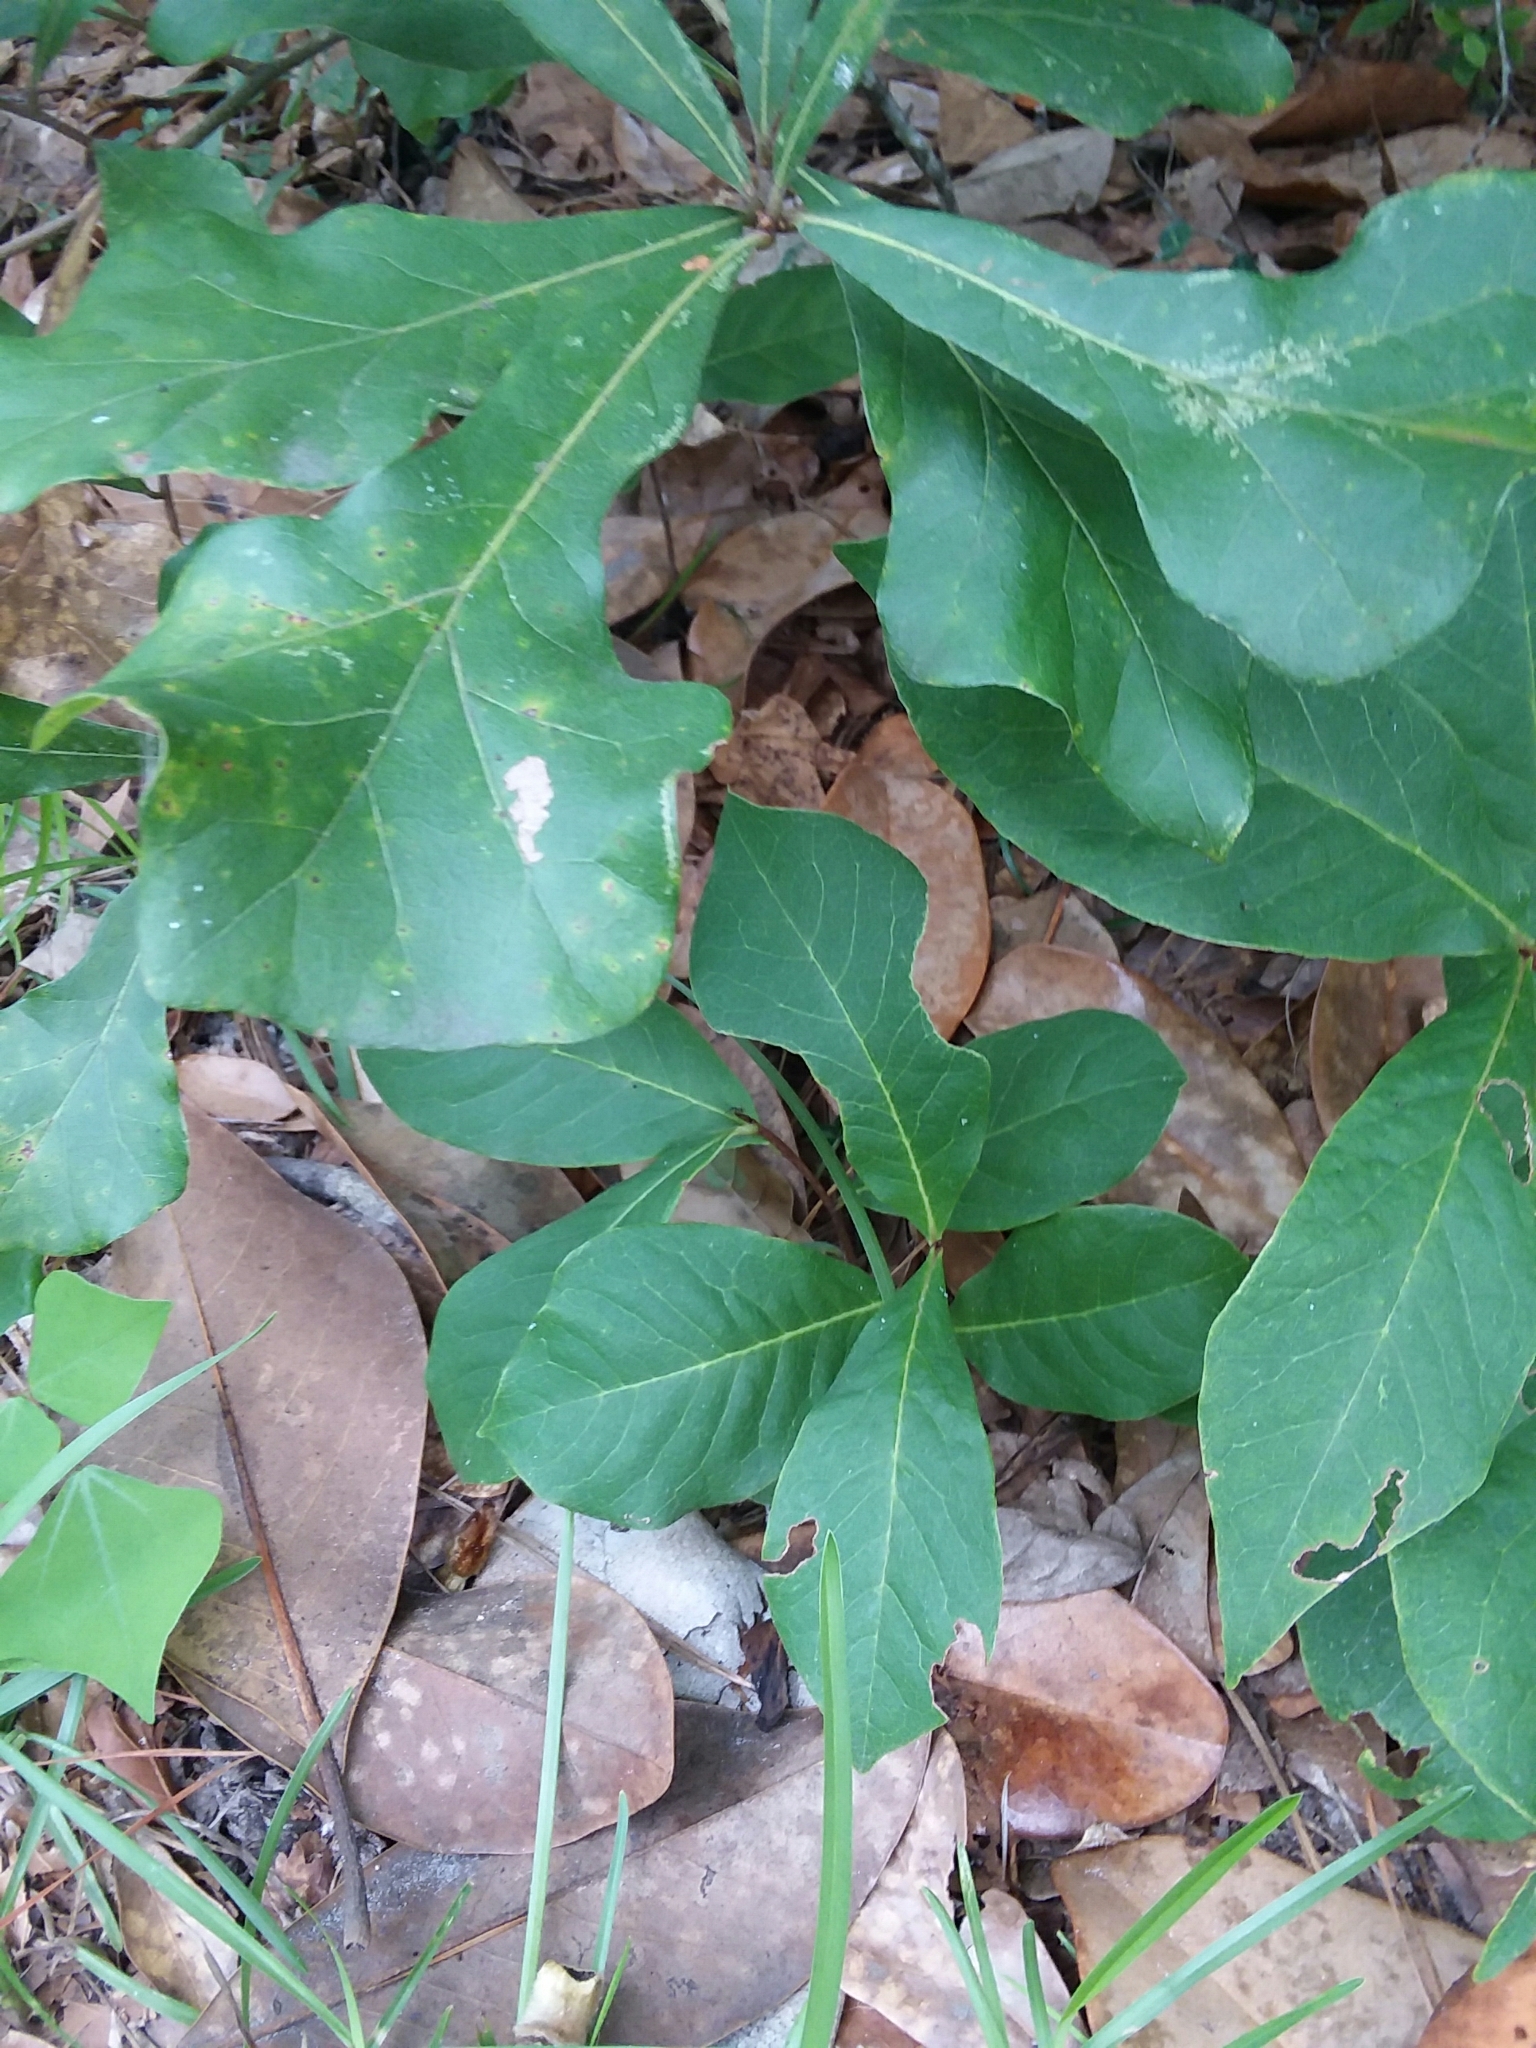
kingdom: Plantae
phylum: Tracheophyta
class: Magnoliopsida
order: Magnoliales
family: Annonaceae
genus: Asimina
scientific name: Asimina parviflora
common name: Dwarf pawpaw
